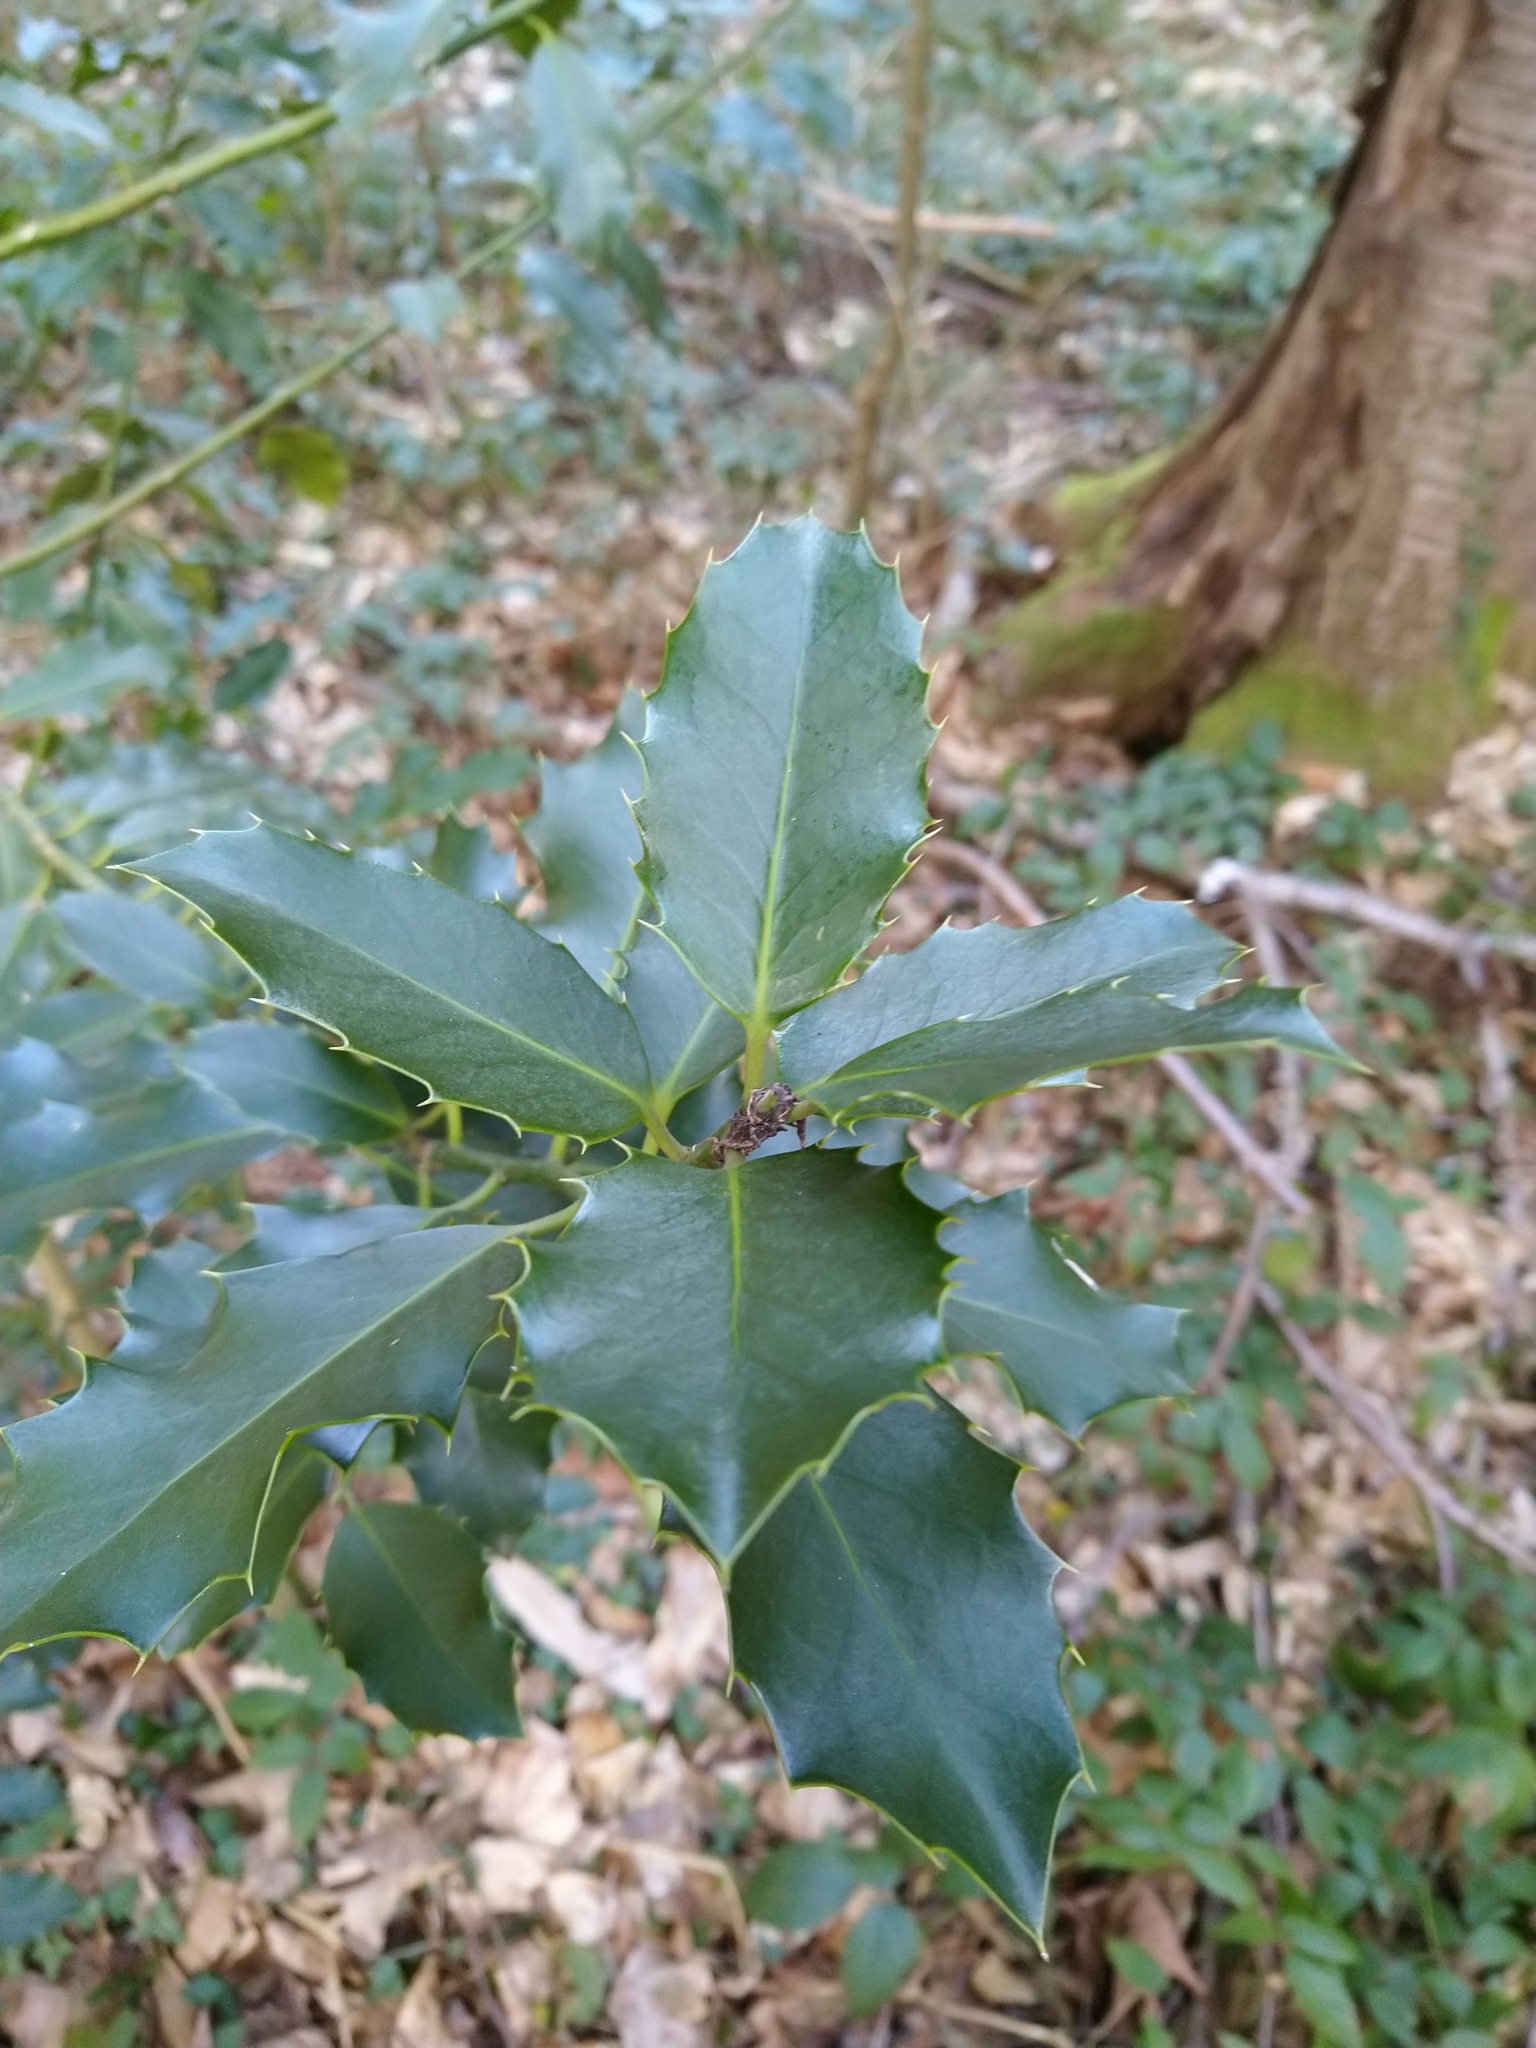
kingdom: Plantae
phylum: Tracheophyta
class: Magnoliopsida
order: Aquifoliales
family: Aquifoliaceae
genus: Ilex
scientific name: Ilex aquifolium
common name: English holly
